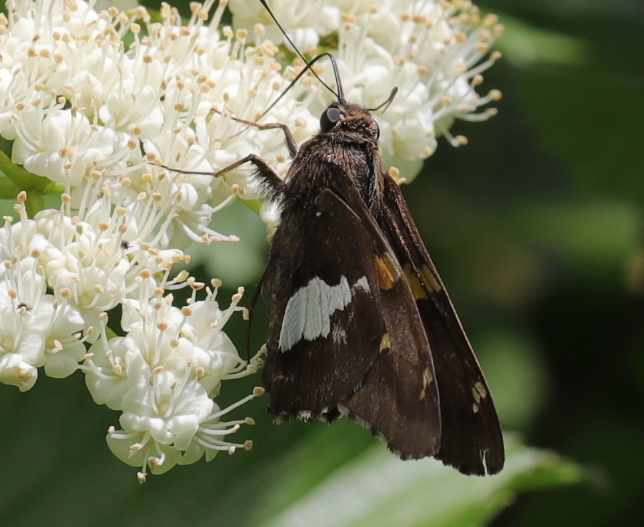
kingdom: Animalia
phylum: Arthropoda
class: Insecta
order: Lepidoptera
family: Hesperiidae
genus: Epargyreus
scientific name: Epargyreus clarus
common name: Silver-spotted skipper
